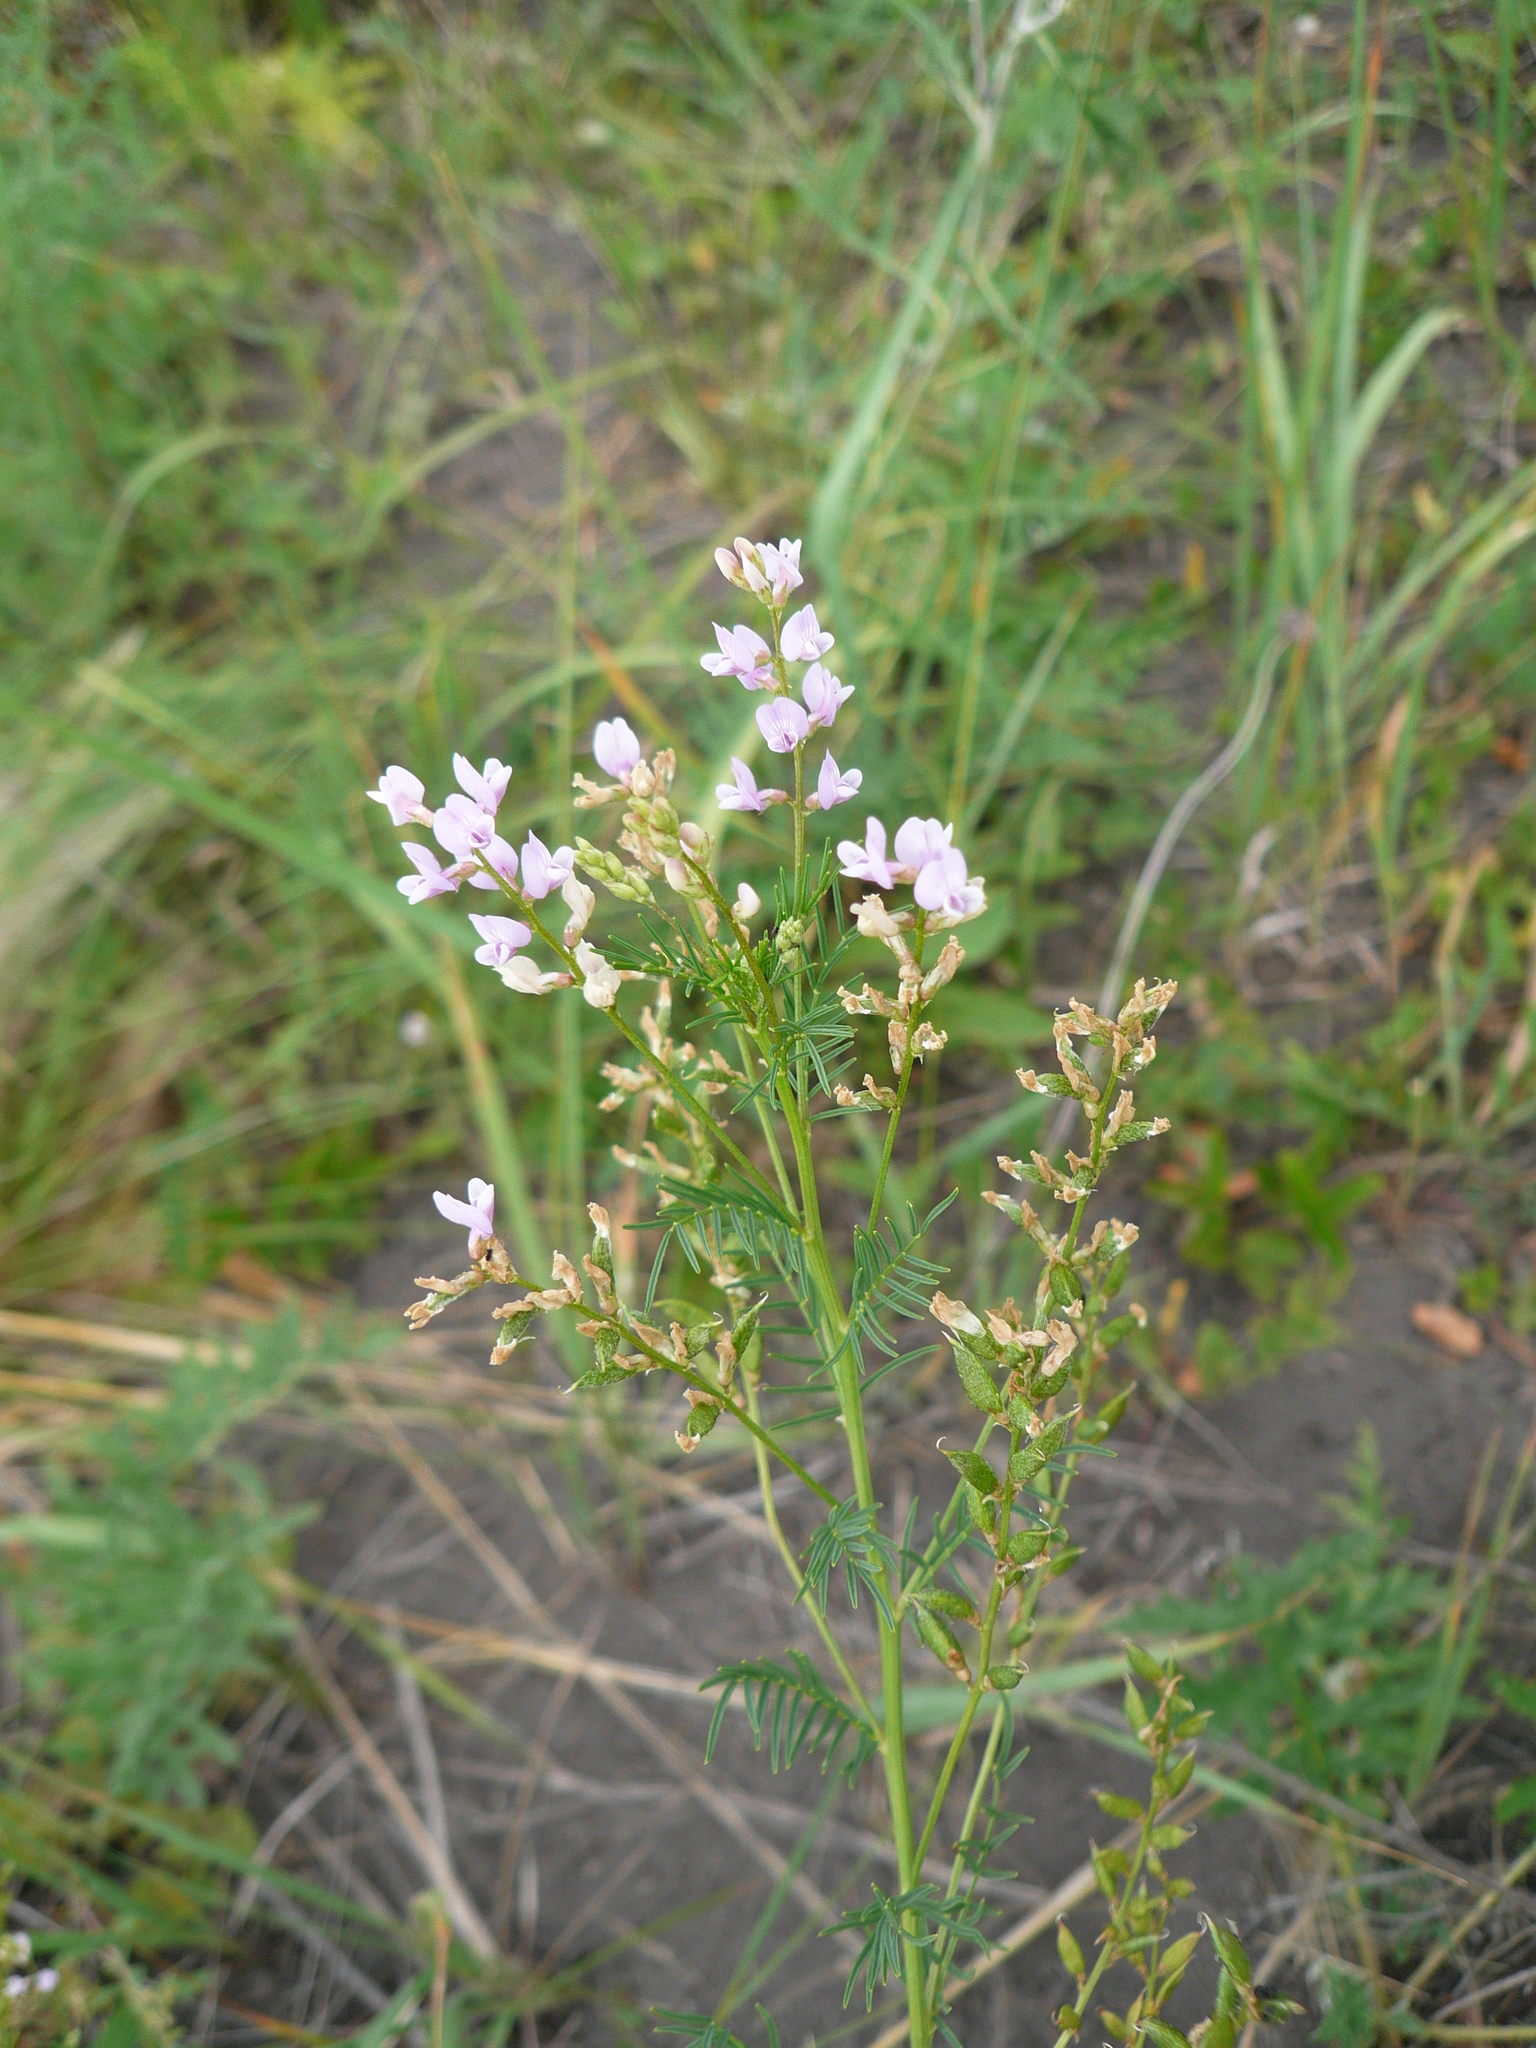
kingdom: Plantae
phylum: Tracheophyta
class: Magnoliopsida
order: Fabales
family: Fabaceae
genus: Astragalus
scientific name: Astragalus sulcatus
